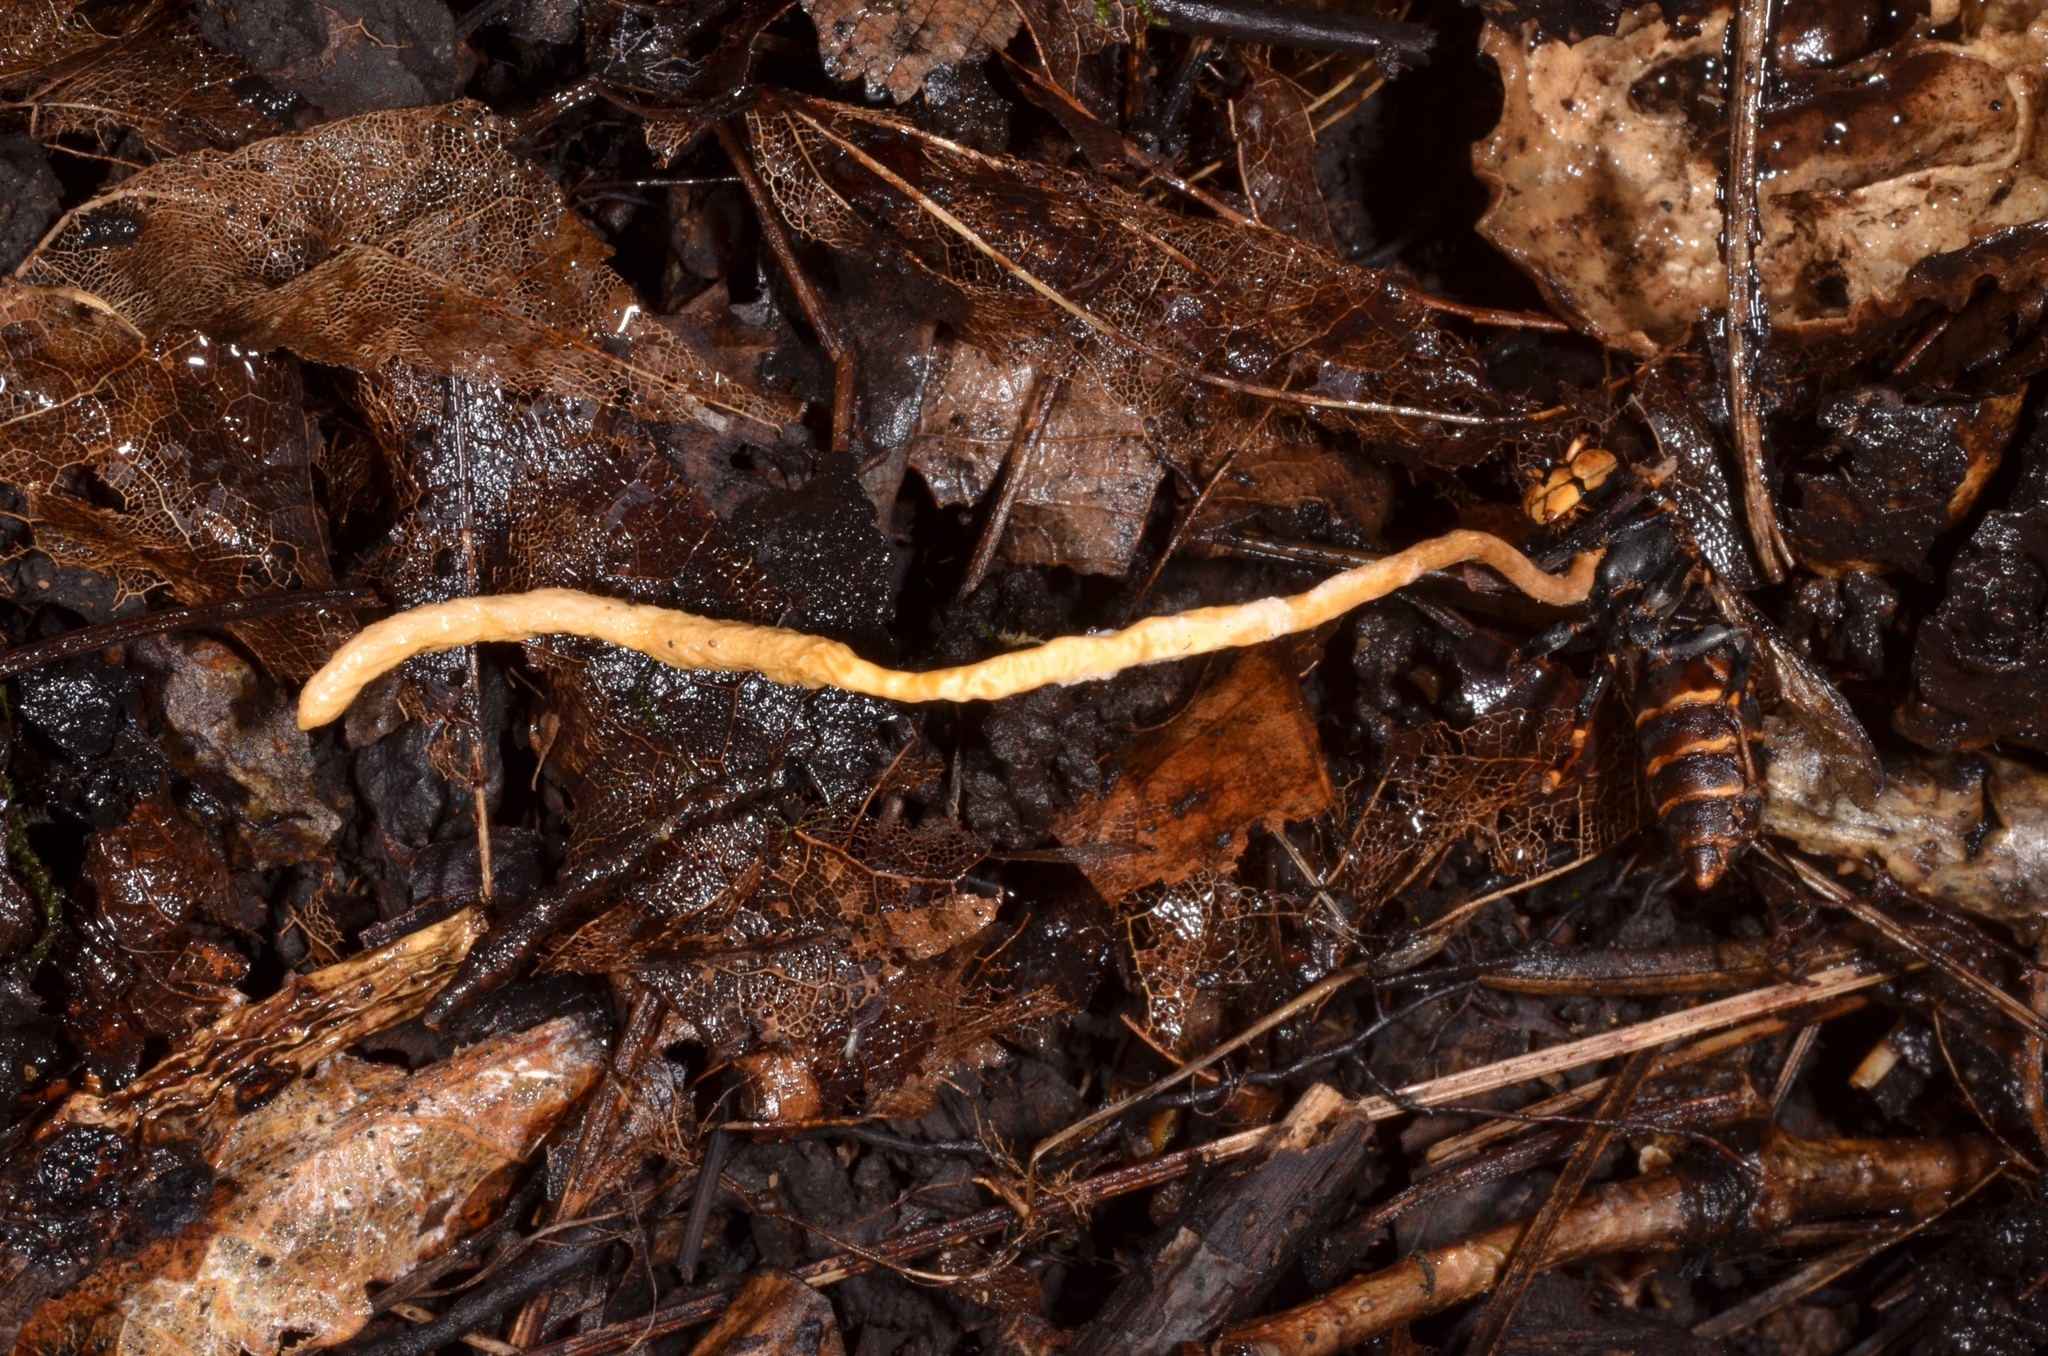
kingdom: Fungi
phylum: Ascomycota
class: Sordariomycetes
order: Hypocreales
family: Ophiocordycipitaceae
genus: Ophiocordyceps
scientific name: Ophiocordyceps sphecocephala
